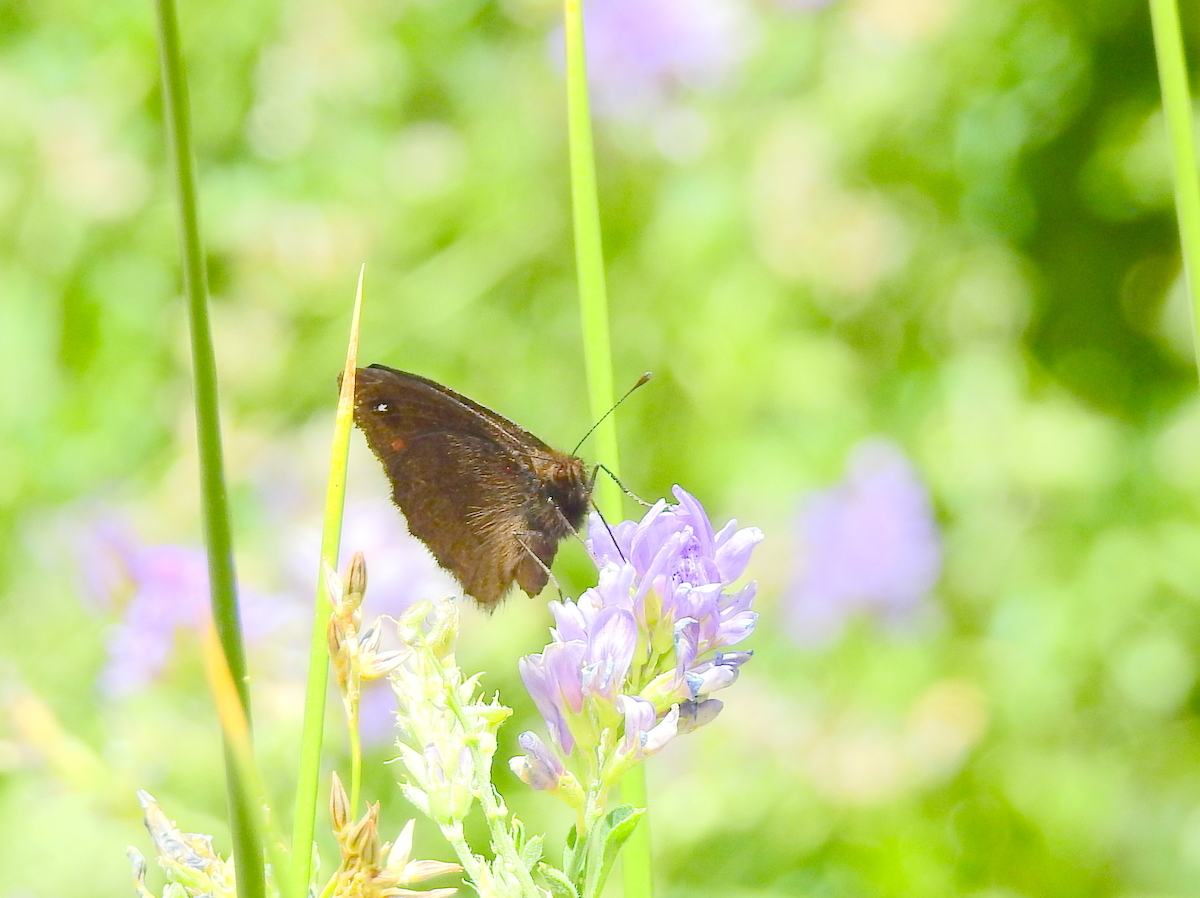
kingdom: Animalia
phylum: Arthropoda
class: Insecta
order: Lepidoptera
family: Nymphalidae
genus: Faunula
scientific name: Faunula leucoglene
